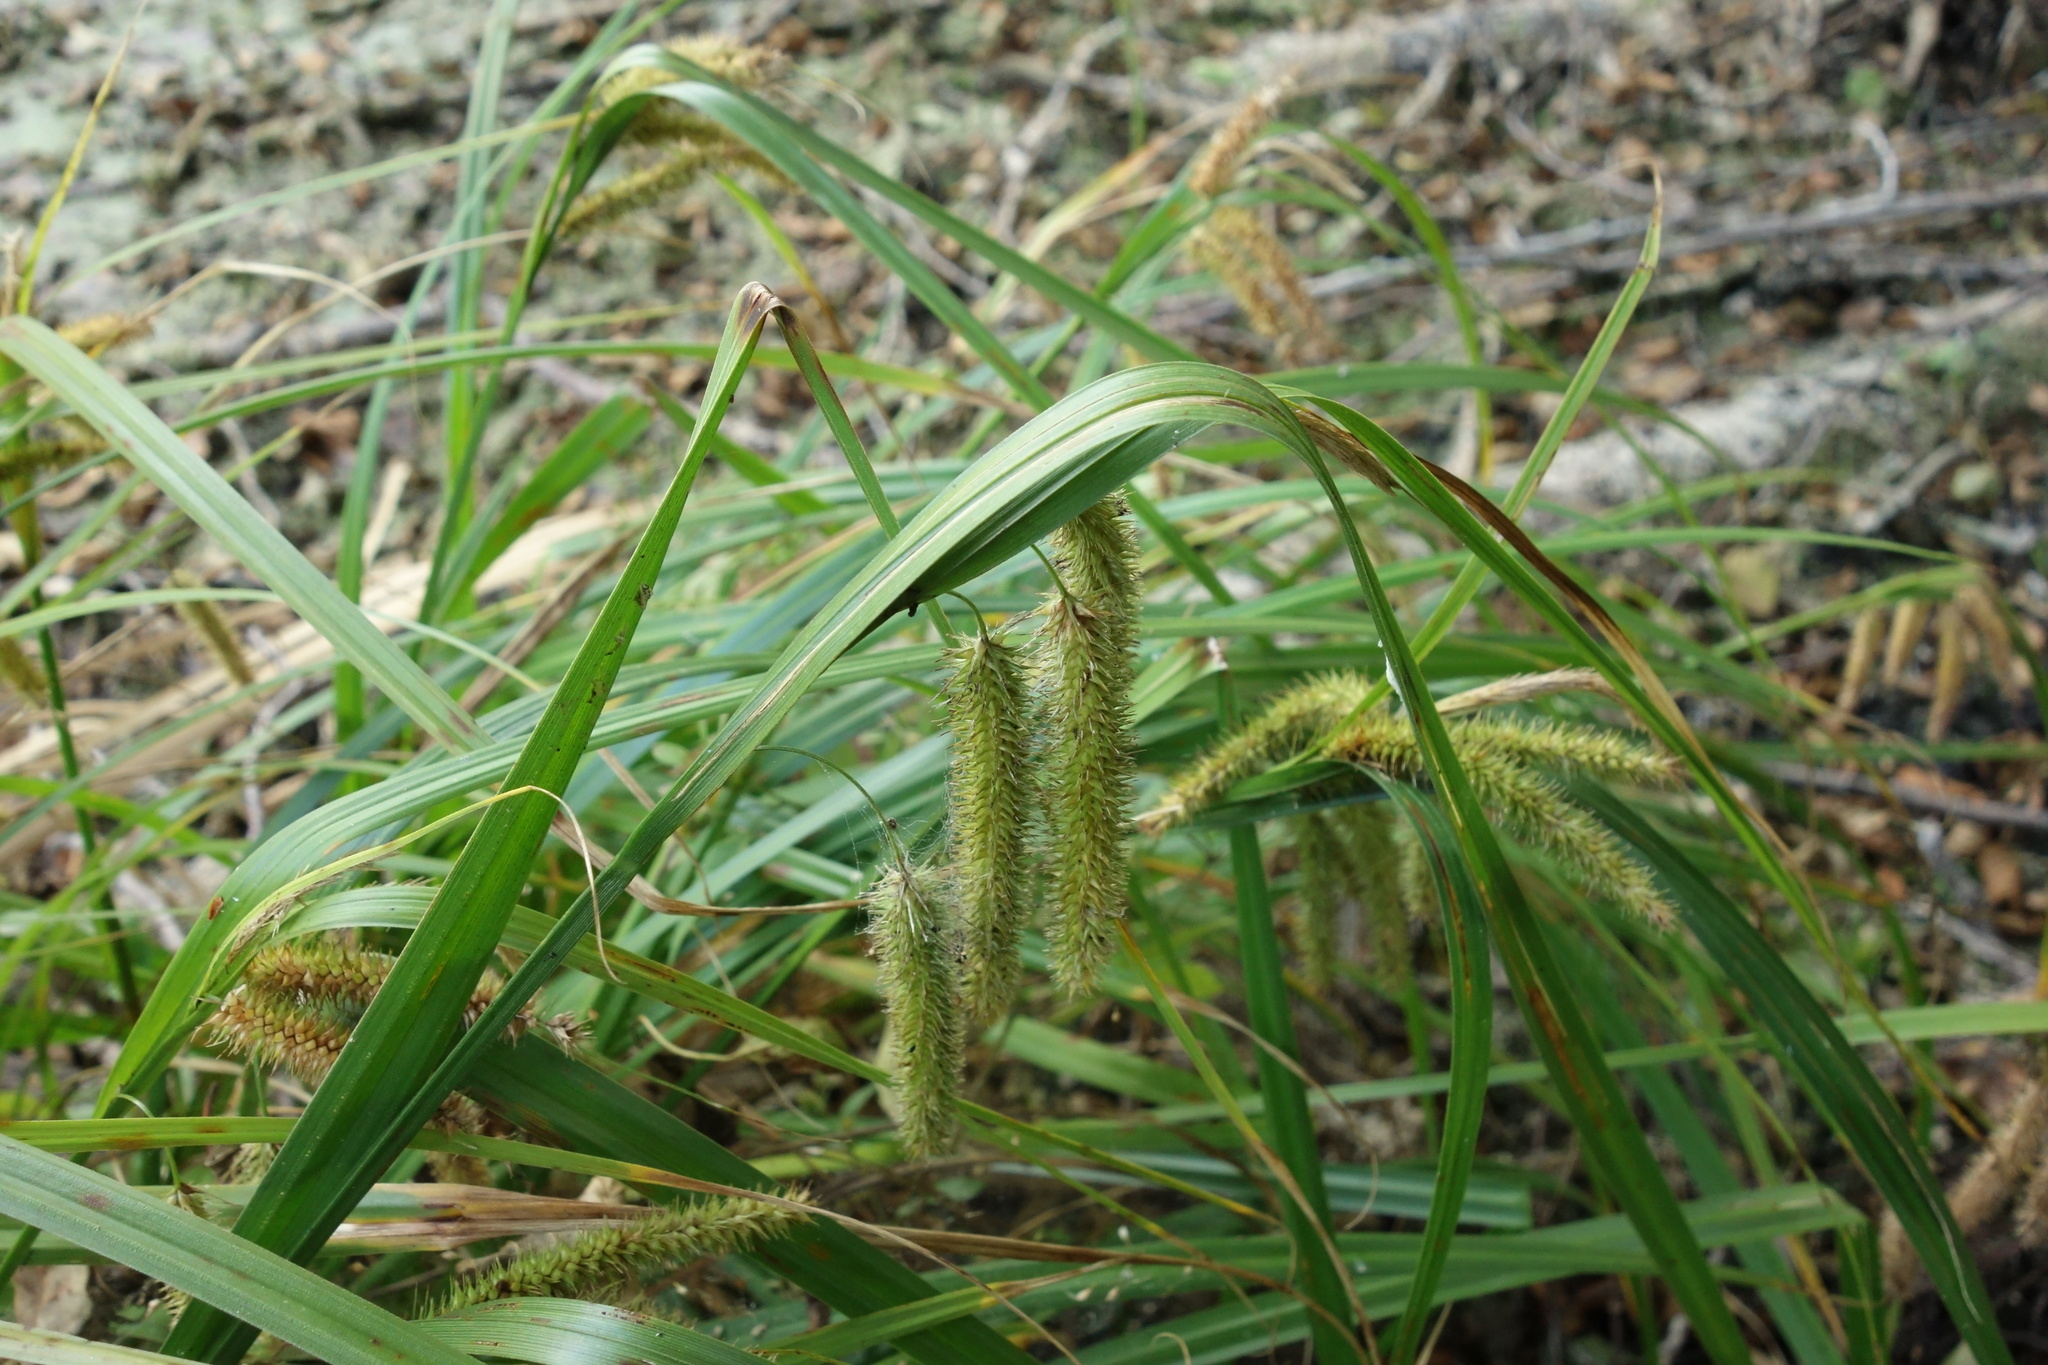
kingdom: Plantae
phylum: Tracheophyta
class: Liliopsida
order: Poales
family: Cyperaceae
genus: Carex
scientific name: Carex pseudocyperus
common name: Cyperus sedge
